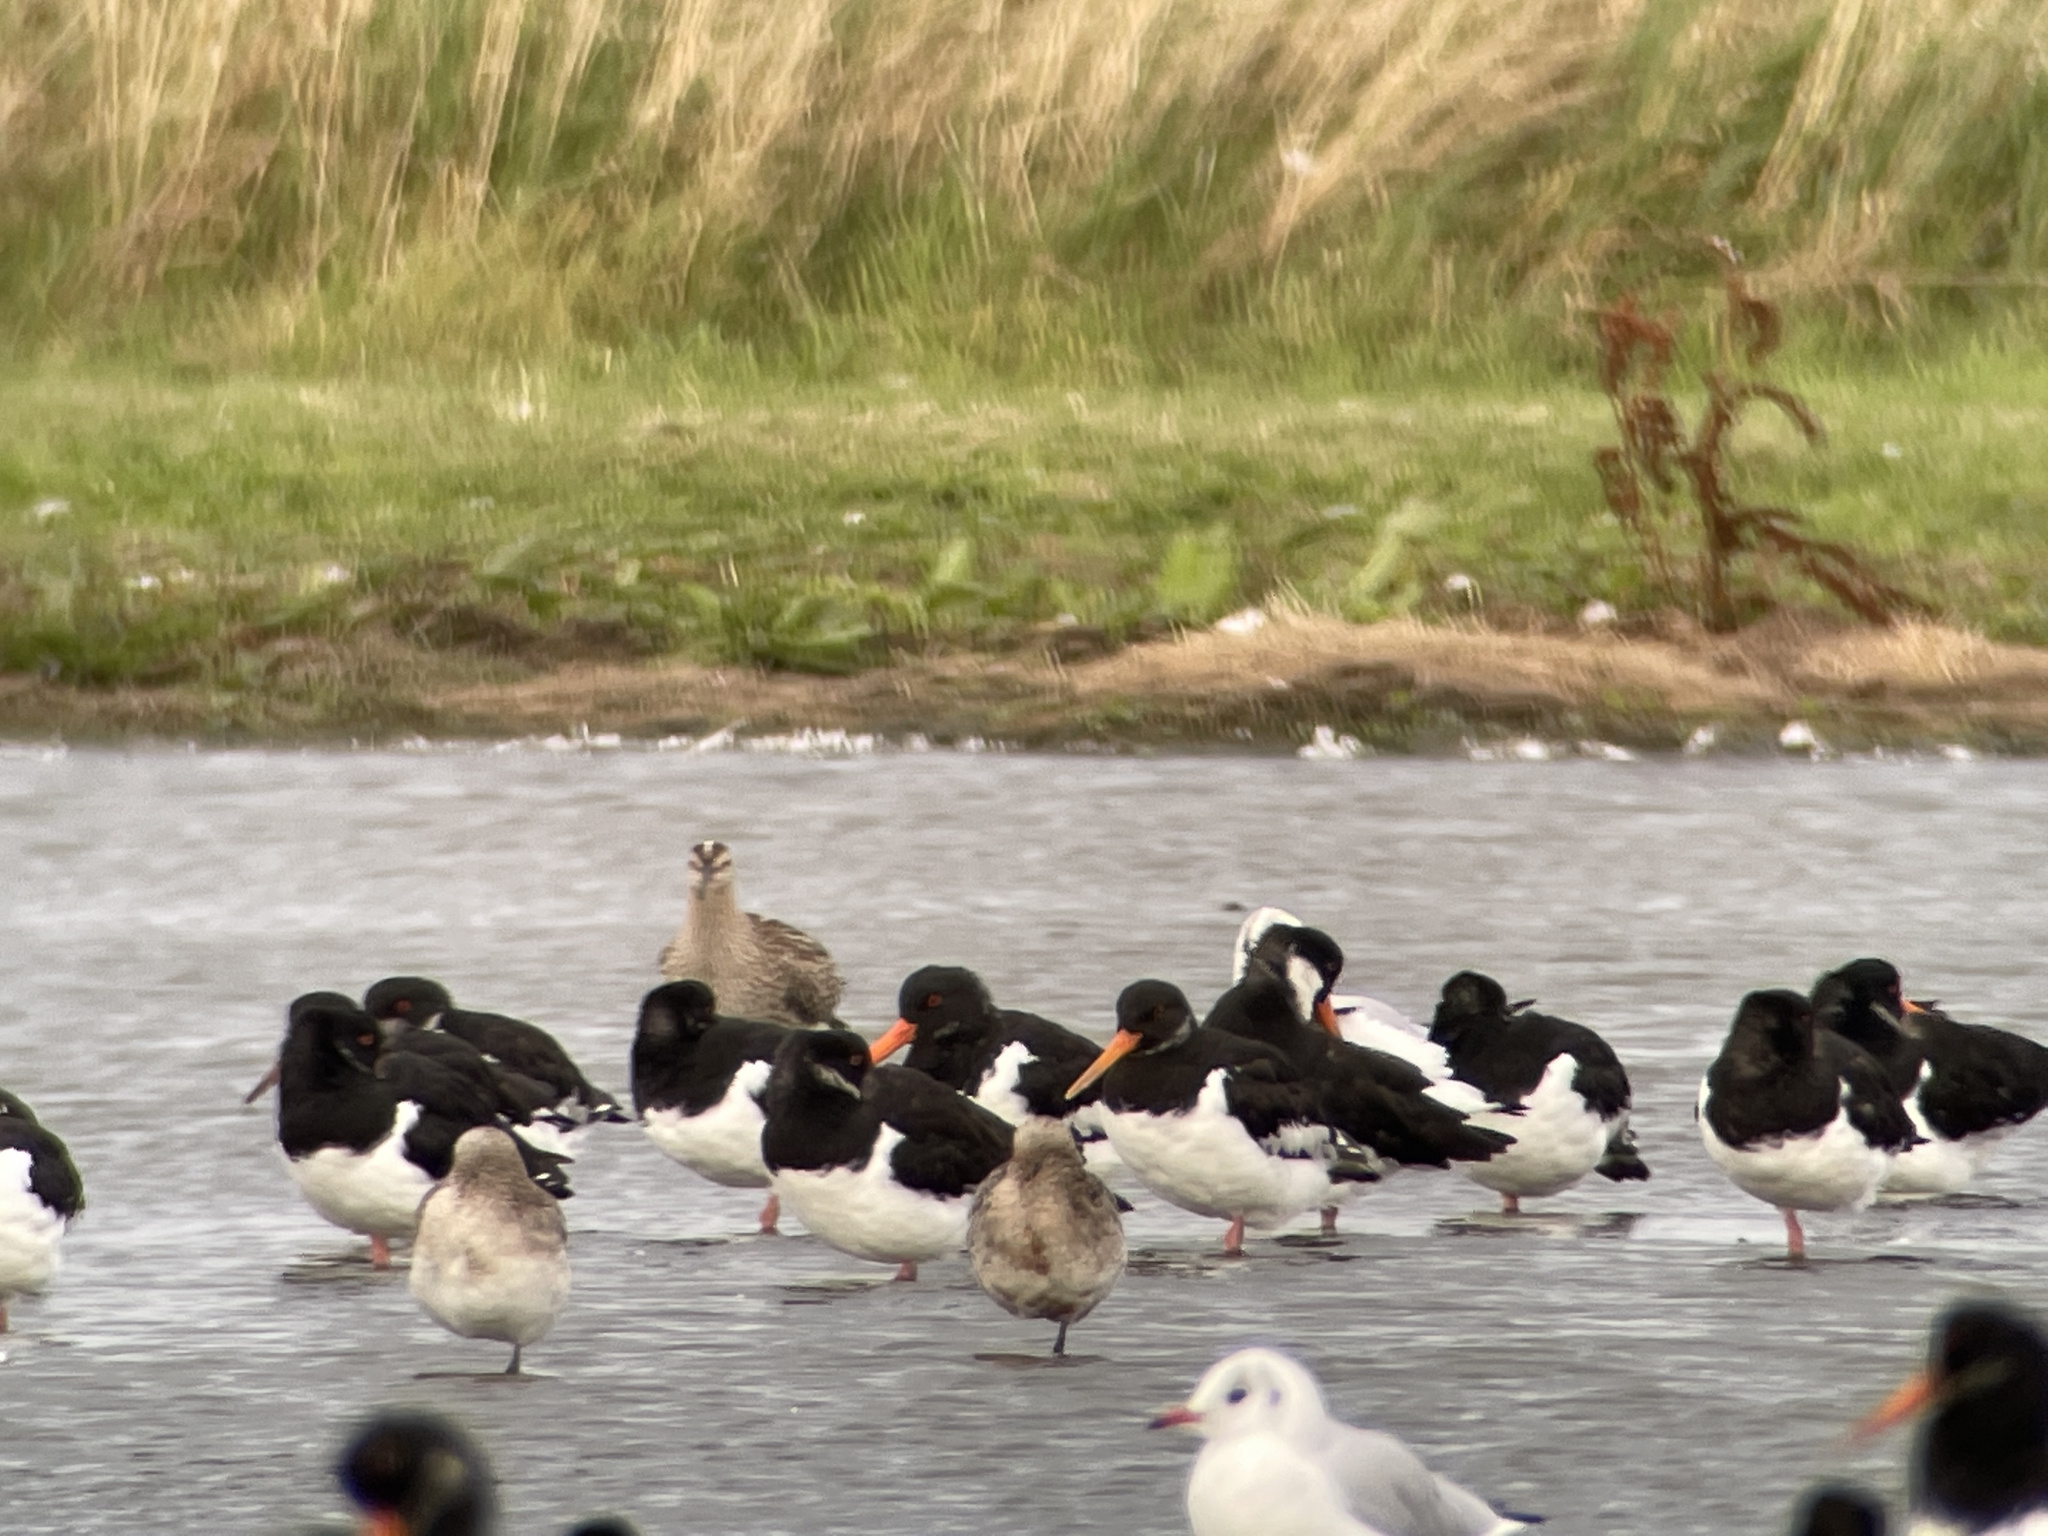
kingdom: Animalia
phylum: Chordata
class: Aves
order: Charadriiformes
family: Scolopacidae
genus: Numenius
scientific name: Numenius phaeopus
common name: Whimbrel
